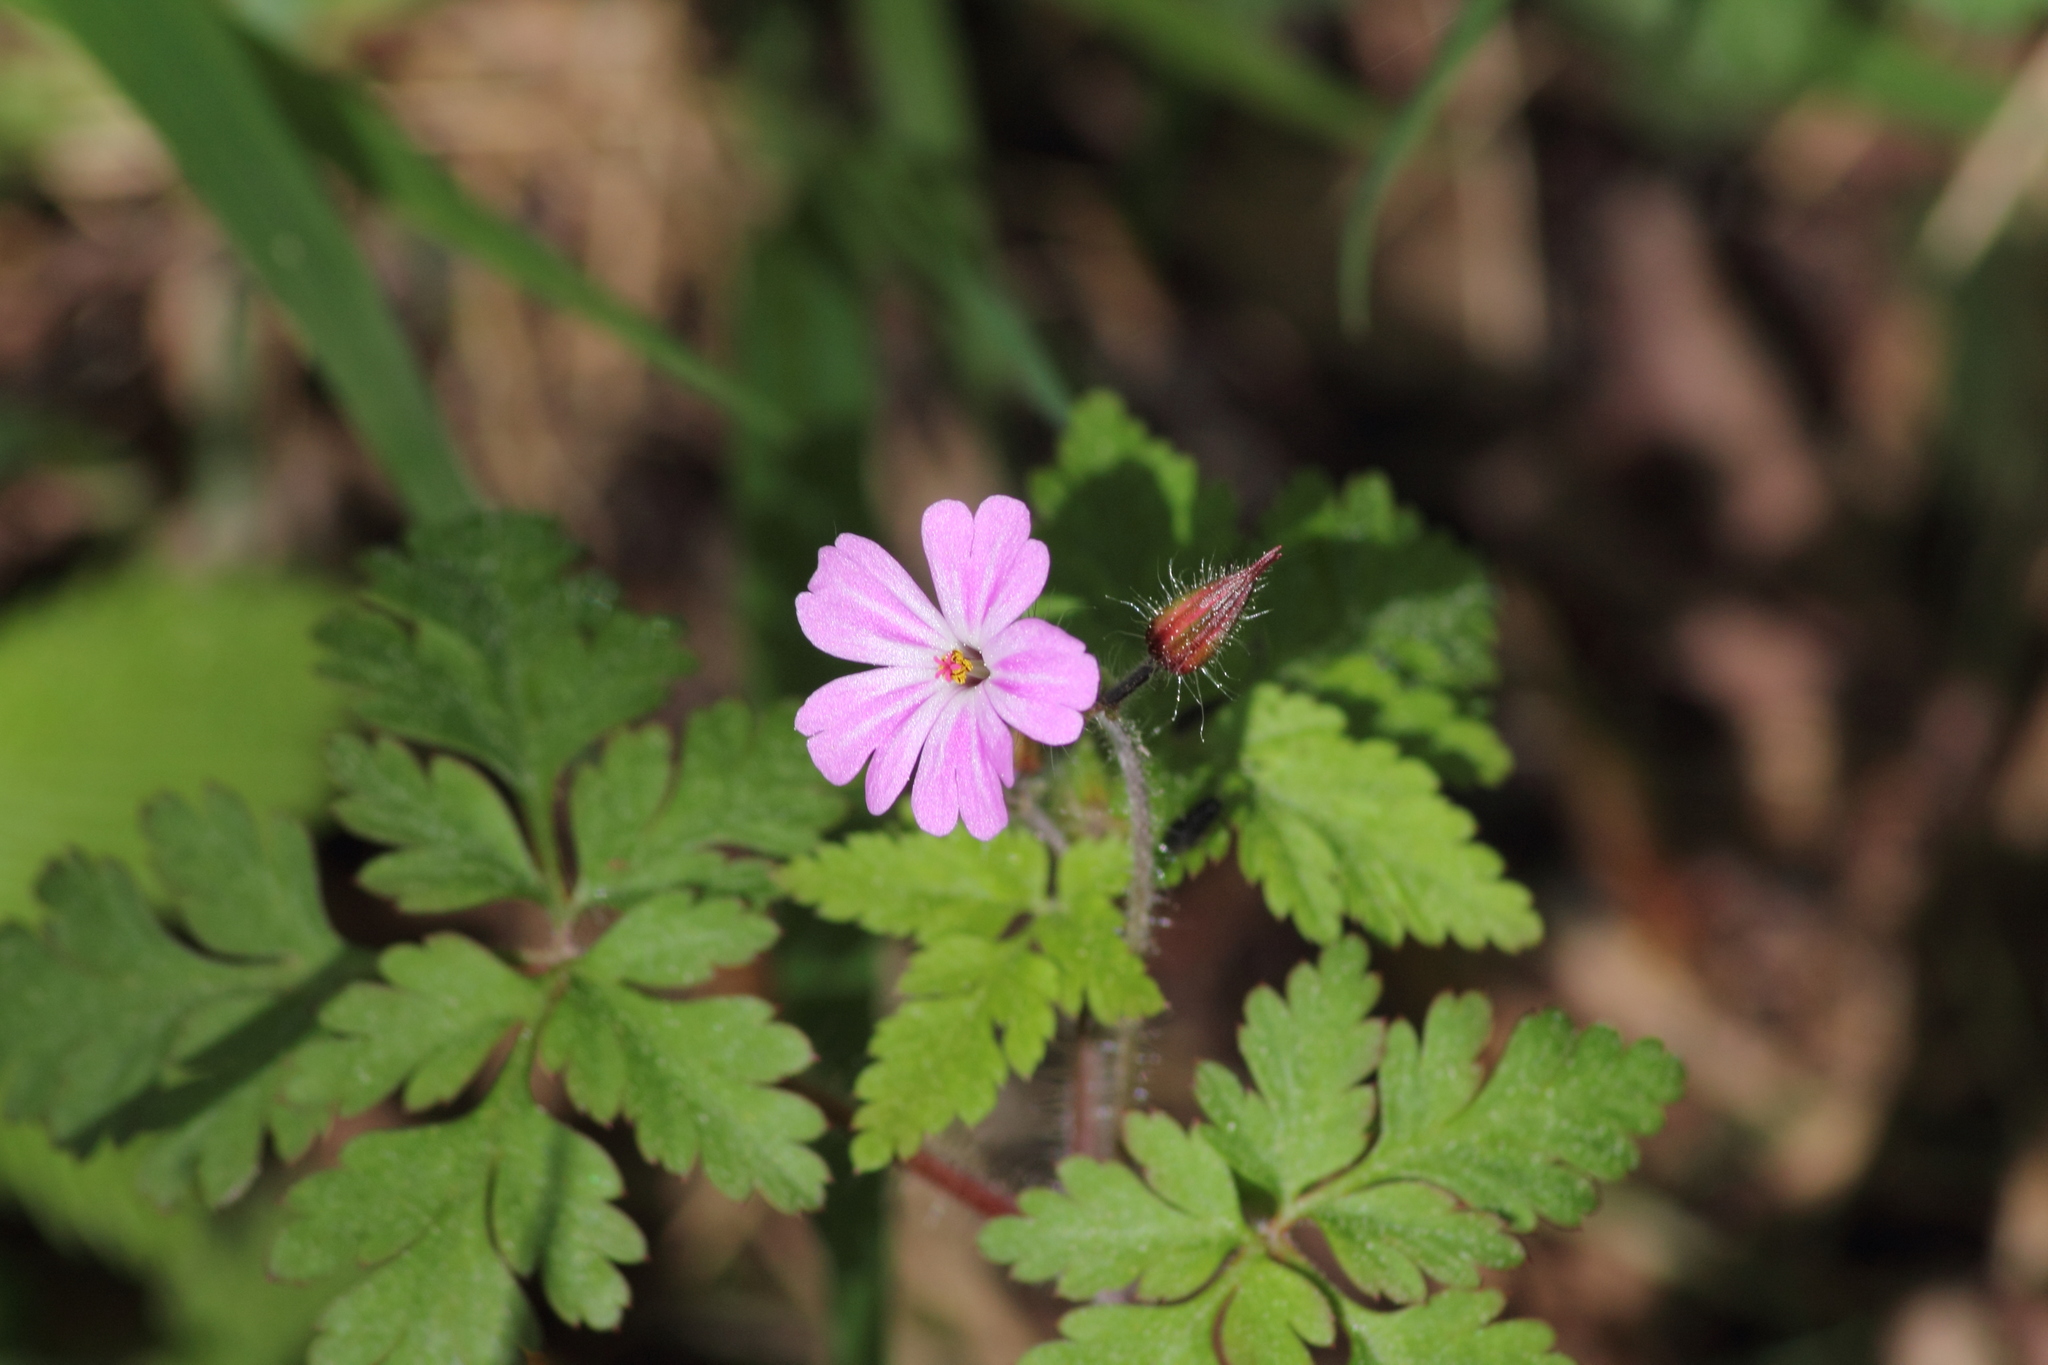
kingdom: Plantae
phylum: Tracheophyta
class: Magnoliopsida
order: Geraniales
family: Geraniaceae
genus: Geranium
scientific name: Geranium robertianum
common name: Herb-robert
